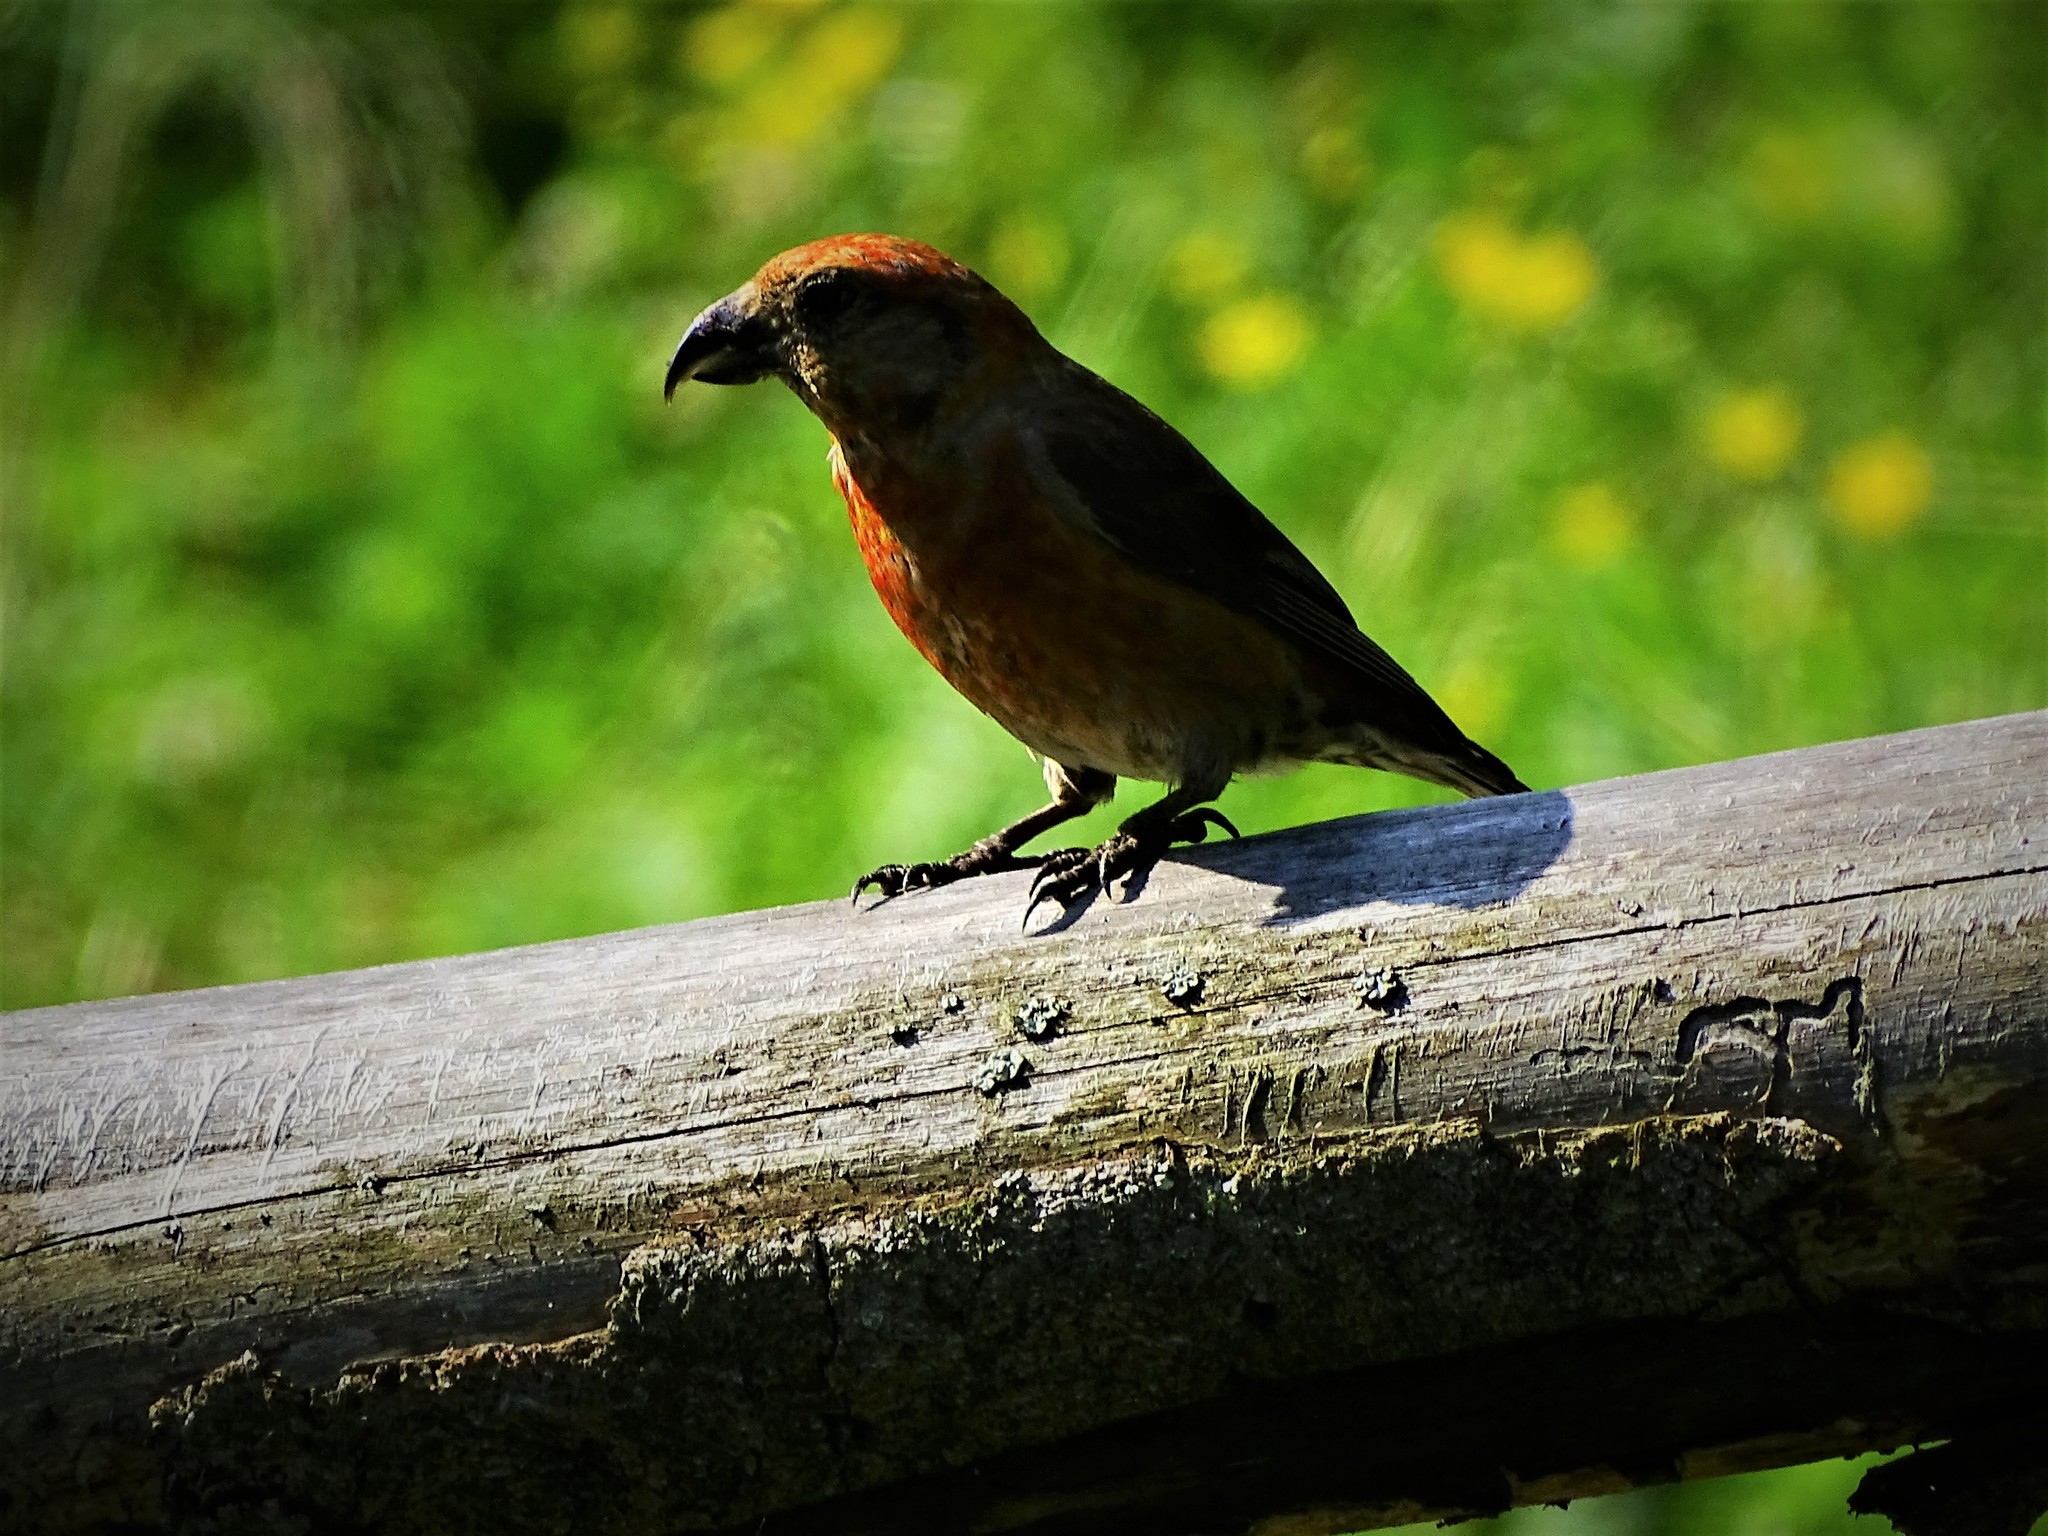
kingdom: Animalia
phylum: Chordata
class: Aves
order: Passeriformes
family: Fringillidae
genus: Loxia
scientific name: Loxia curvirostra
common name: Red crossbill
